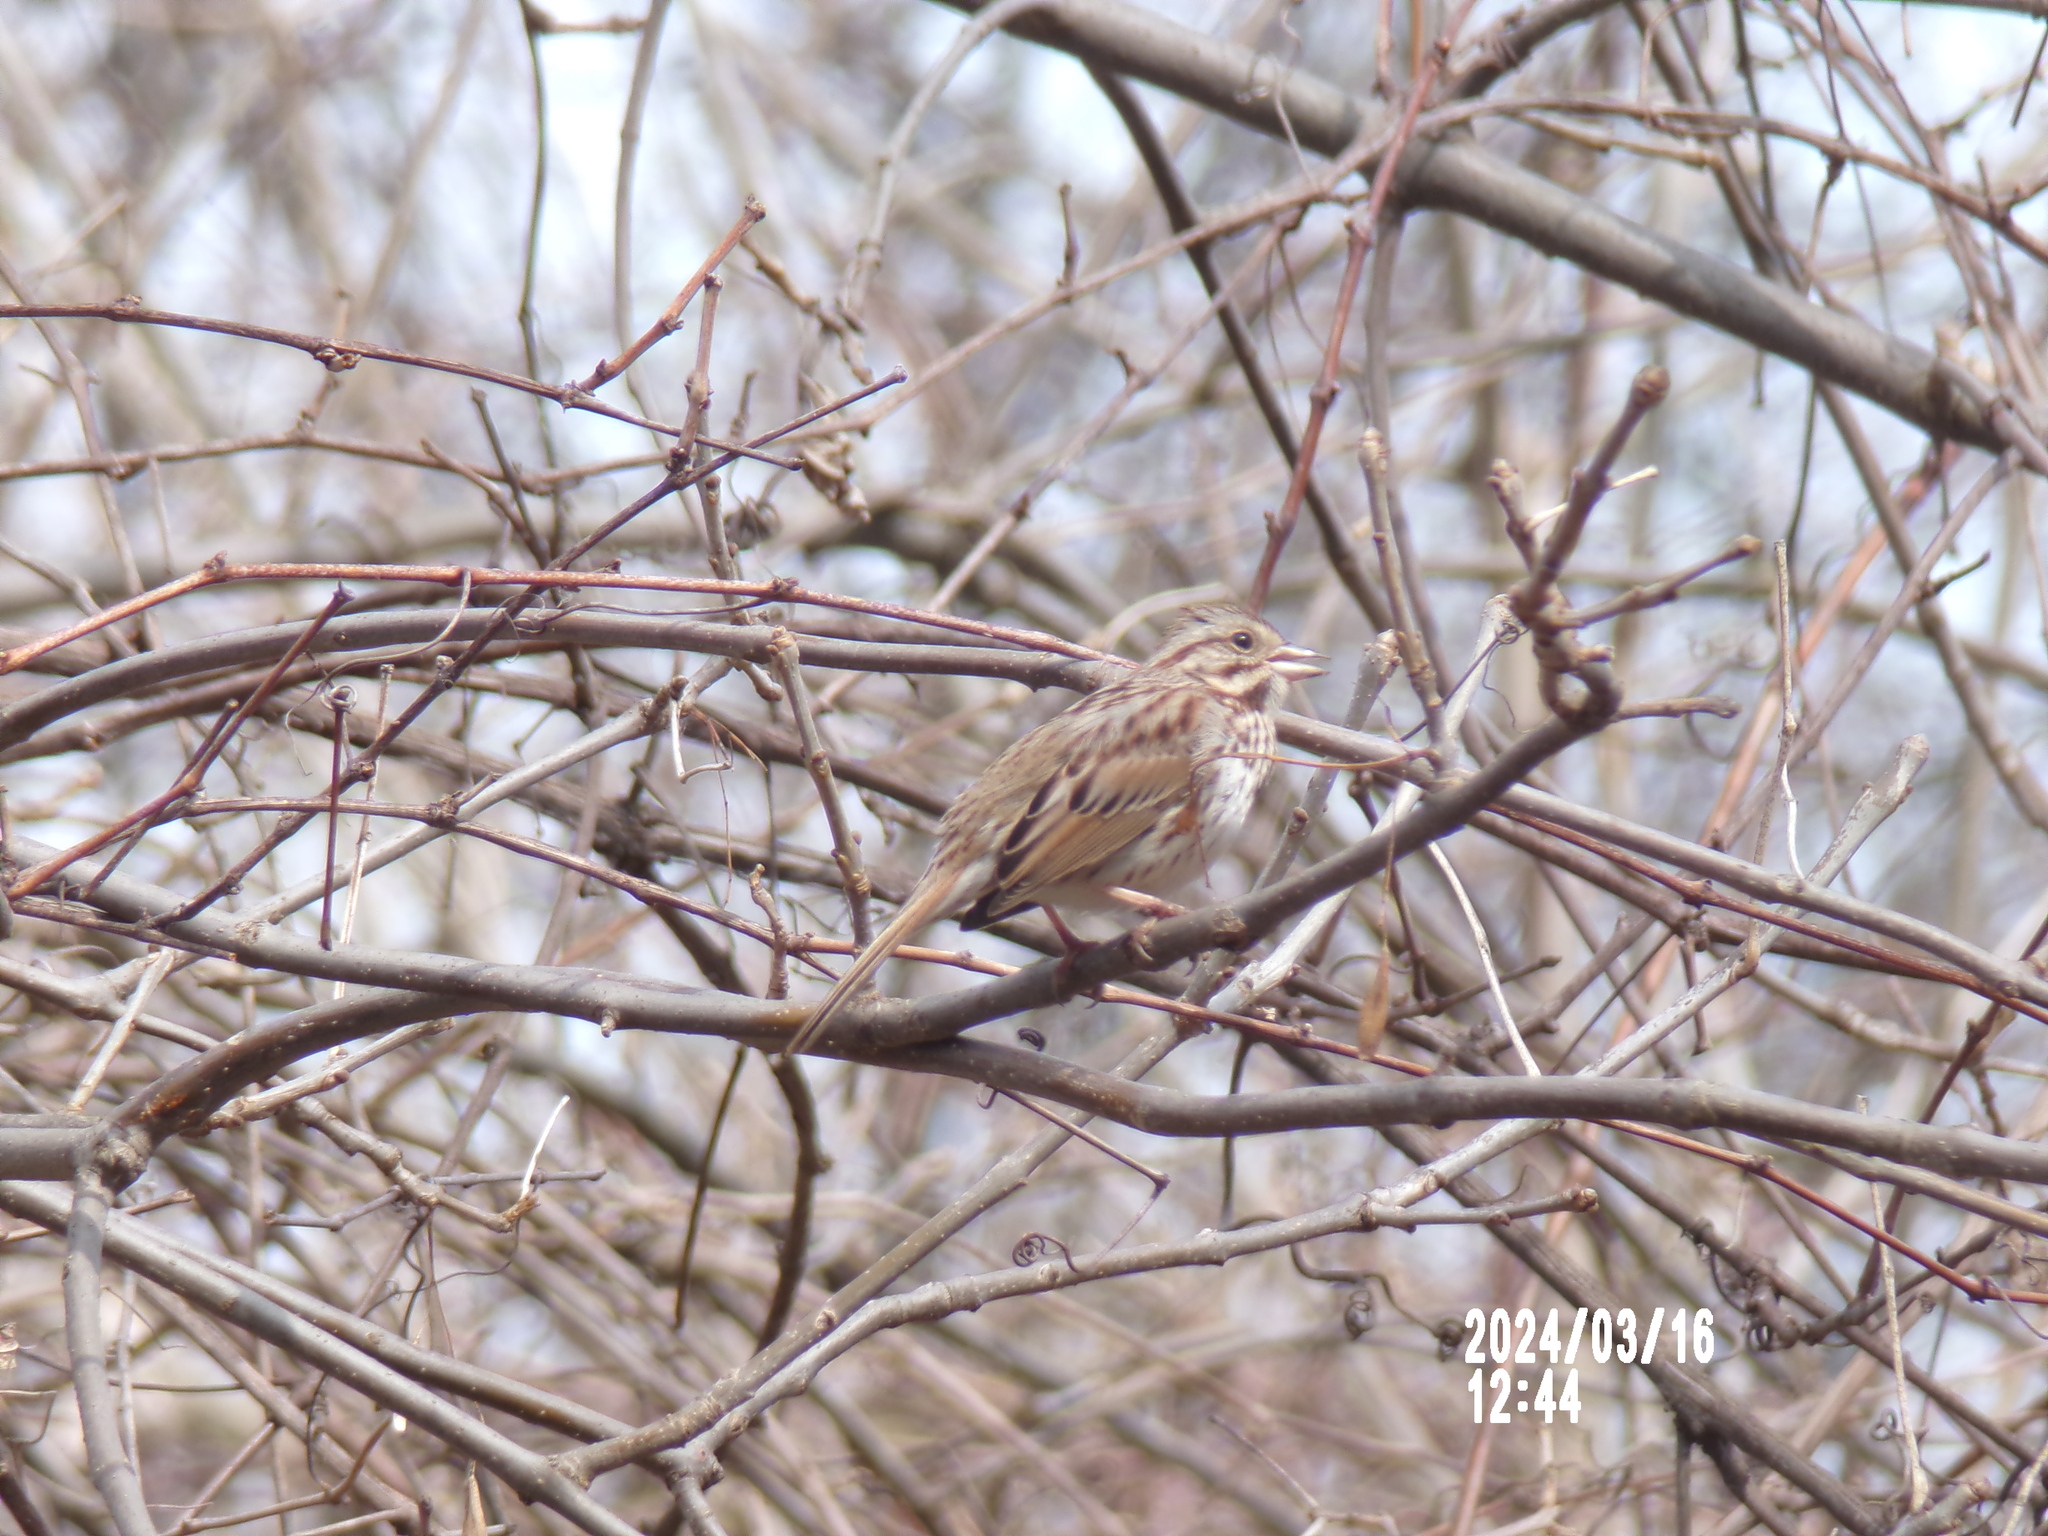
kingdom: Animalia
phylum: Chordata
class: Aves
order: Passeriformes
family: Passerellidae
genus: Melospiza
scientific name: Melospiza melodia
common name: Song sparrow
